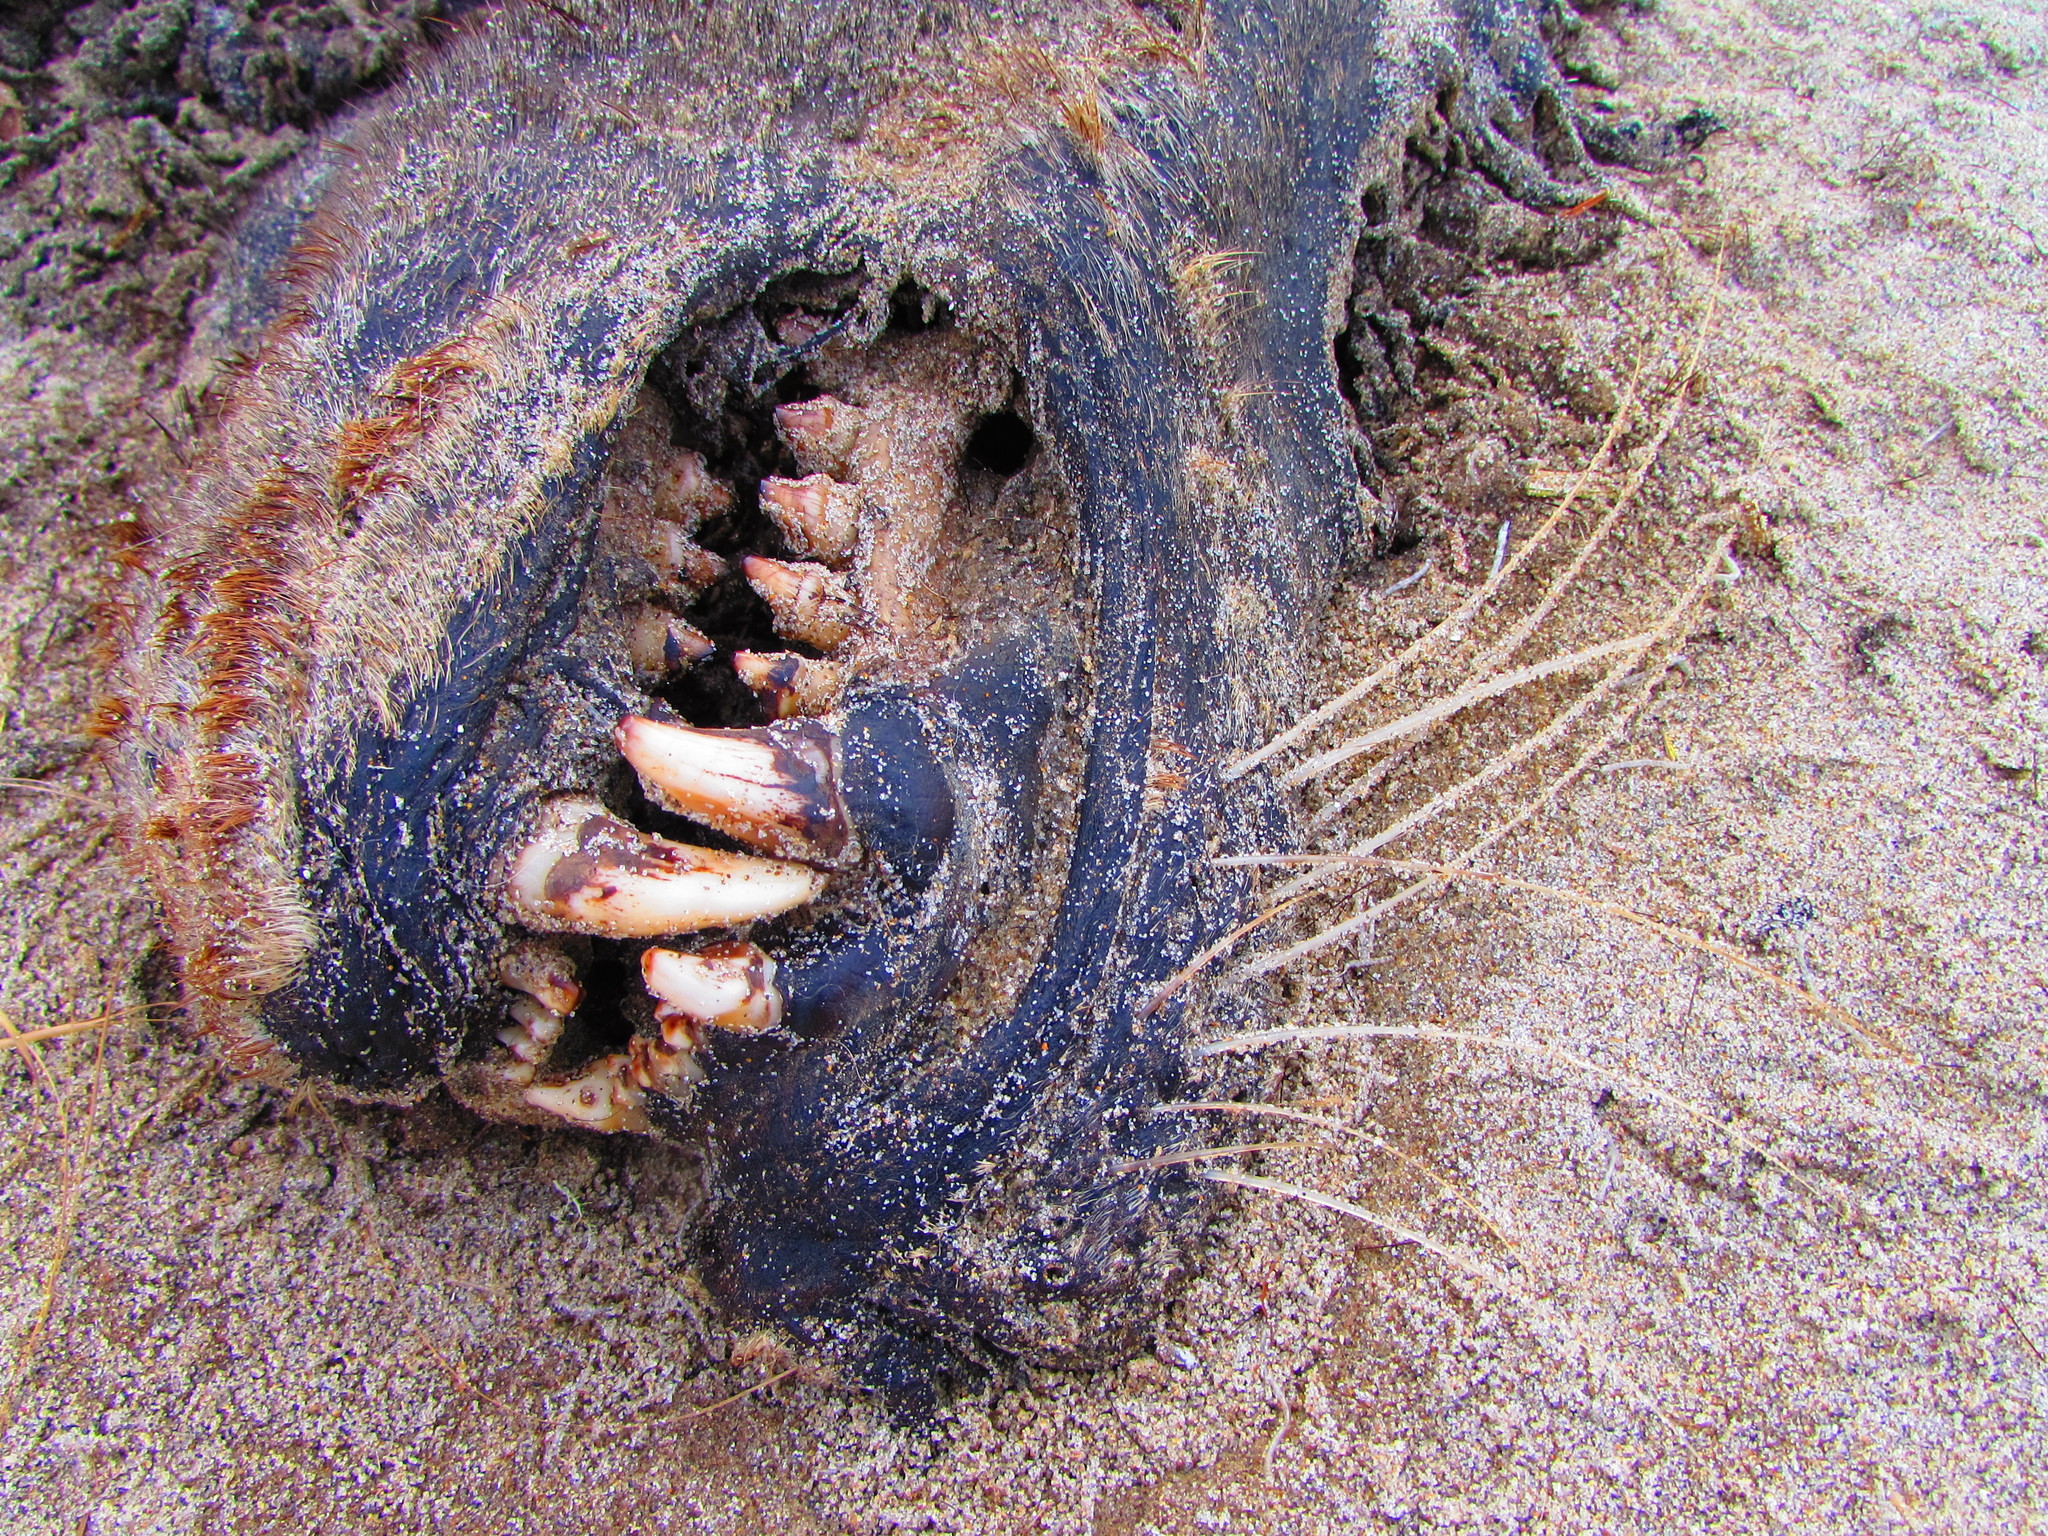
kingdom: Animalia
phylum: Chordata
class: Mammalia
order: Carnivora
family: Otariidae
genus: Zalophus
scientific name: Zalophus californianus
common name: California sea lion
